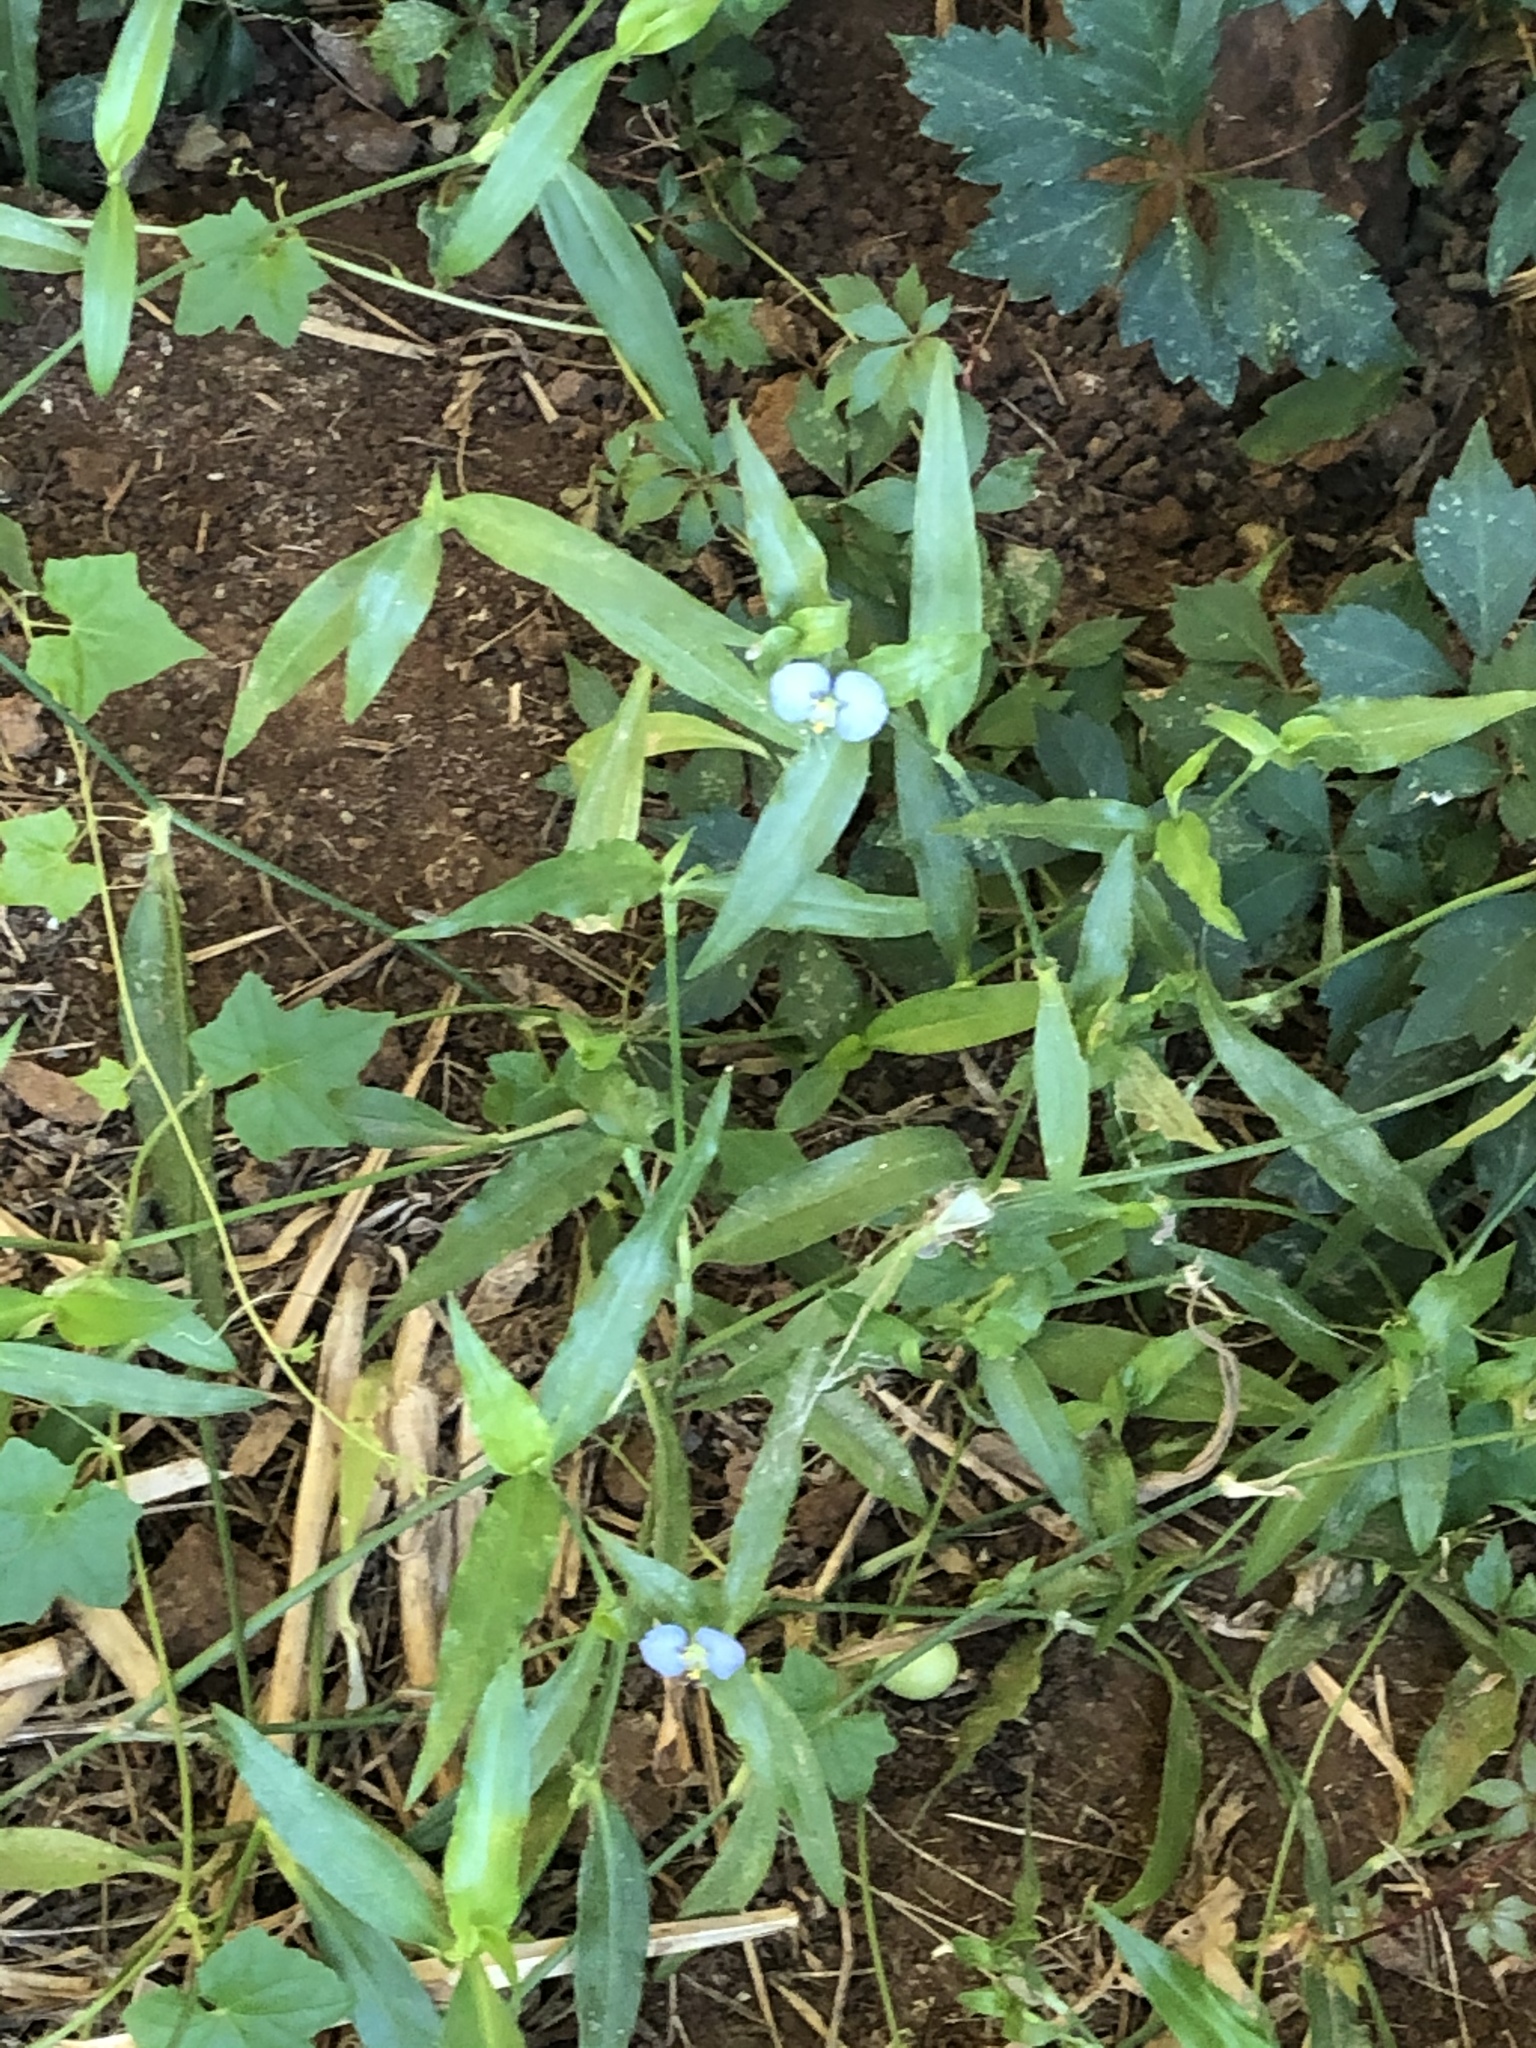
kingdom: Plantae
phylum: Tracheophyta
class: Liliopsida
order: Commelinales
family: Commelinaceae
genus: Commelina
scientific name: Commelina erecta
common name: Blousel blommetjie
